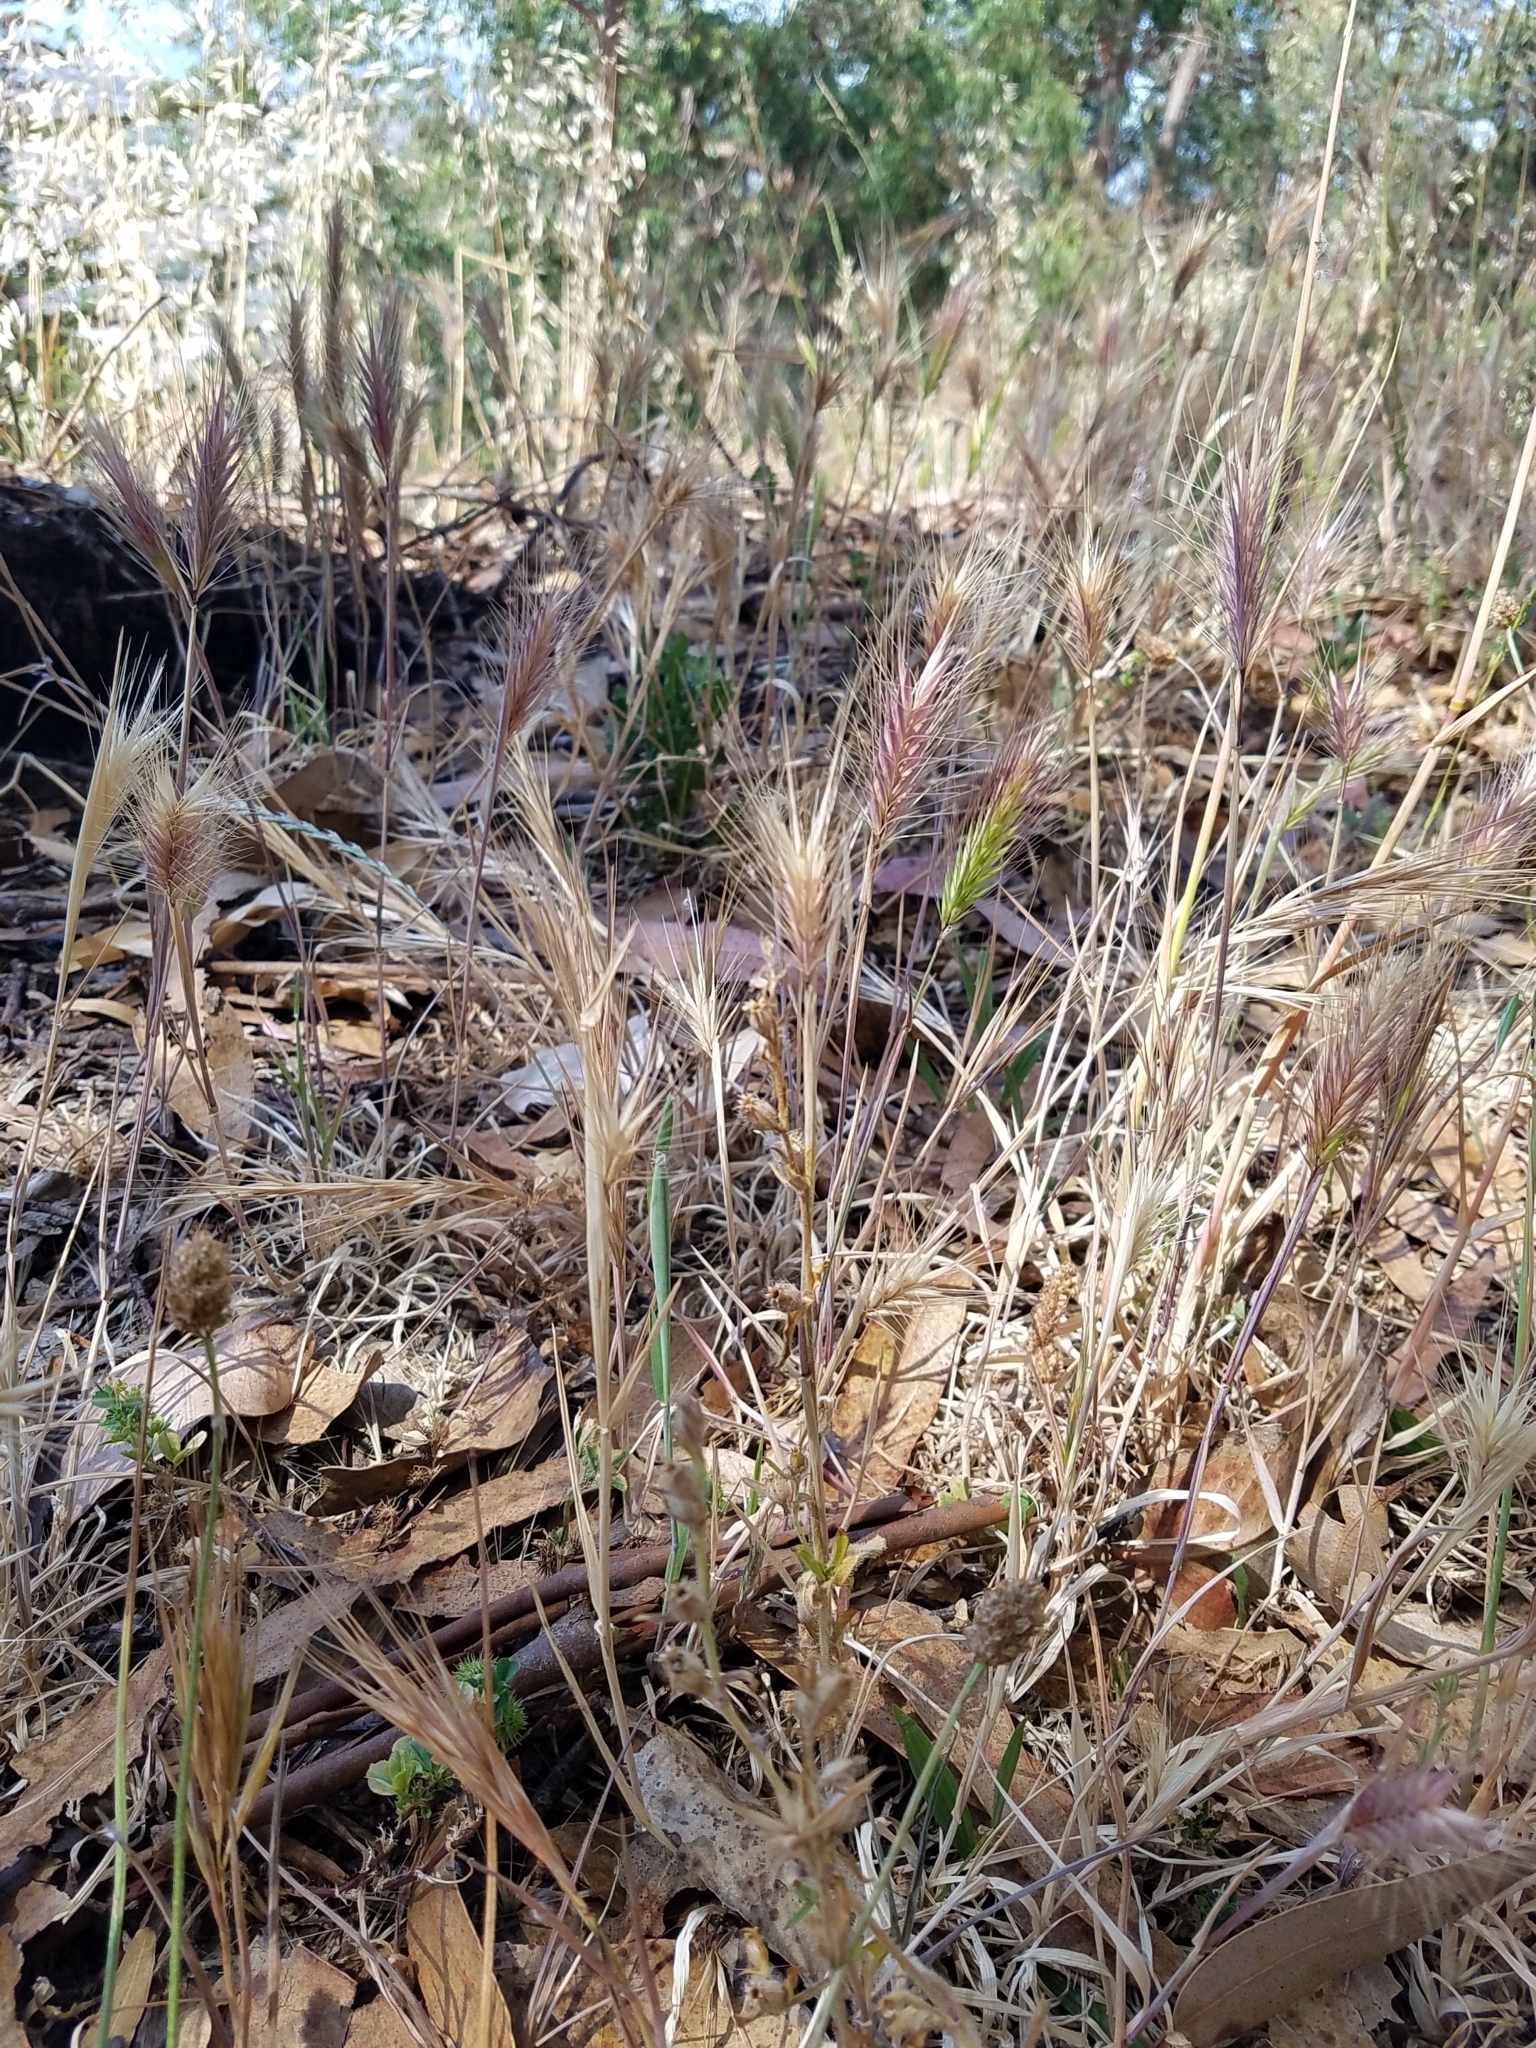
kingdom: Plantae
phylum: Tracheophyta
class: Liliopsida
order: Poales
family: Poaceae
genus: Hordeum
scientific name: Hordeum murinum
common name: Wall barley
